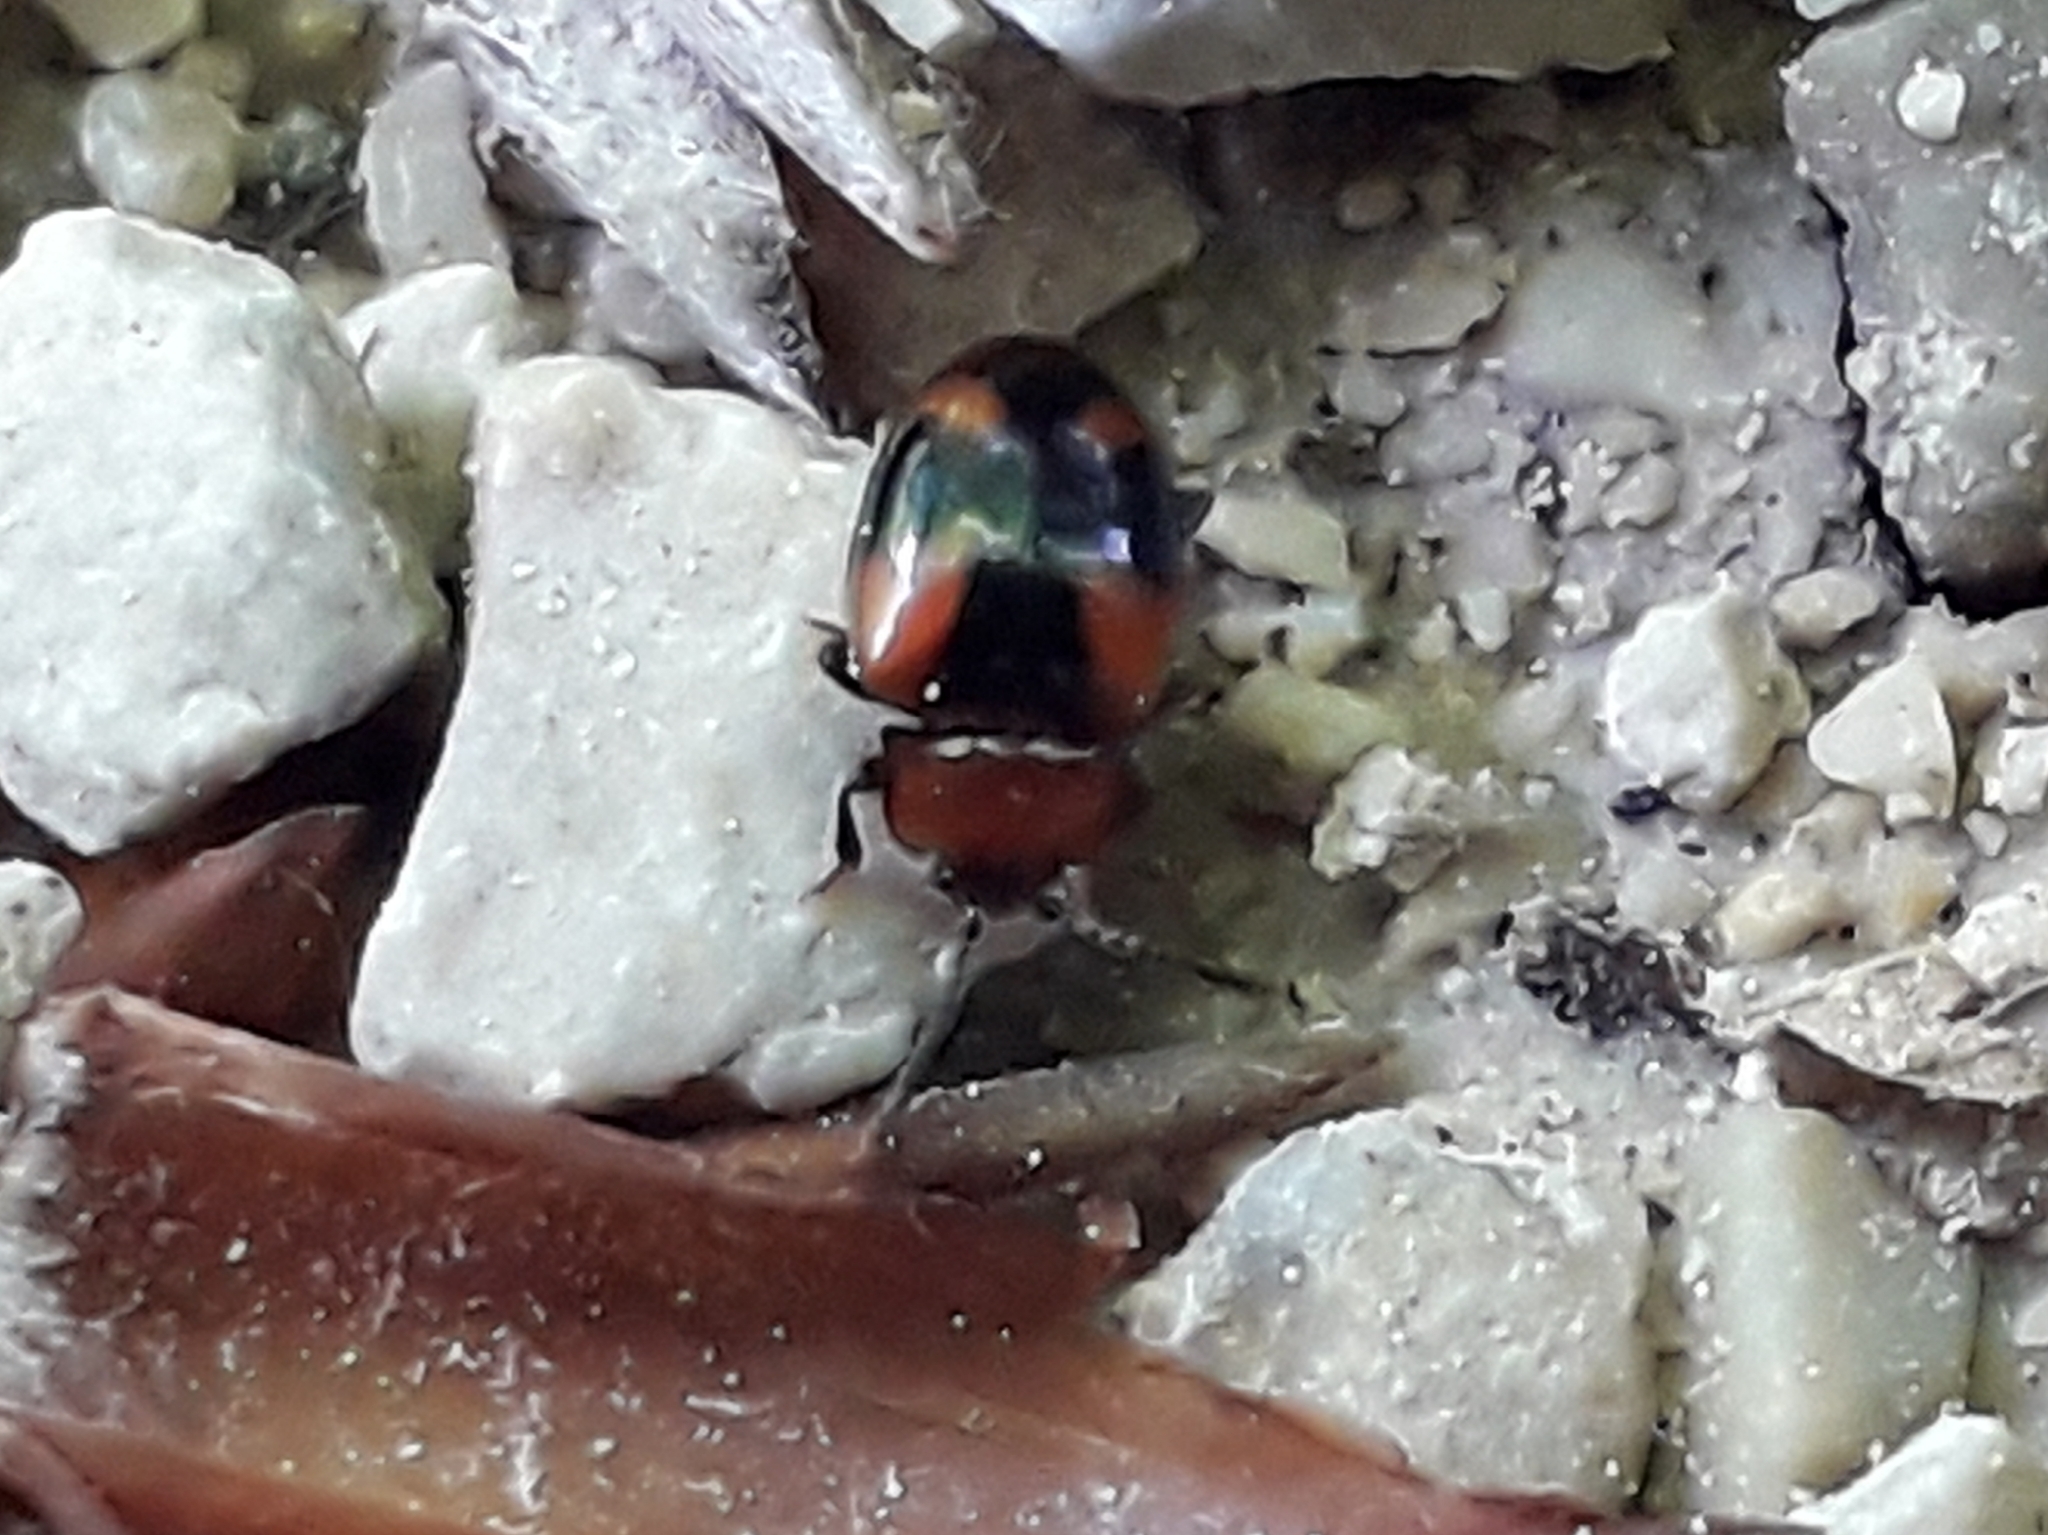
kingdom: Animalia
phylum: Arthropoda
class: Insecta
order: Coleoptera
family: Endomychidae
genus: Mycetina
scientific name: Mycetina cruciata
